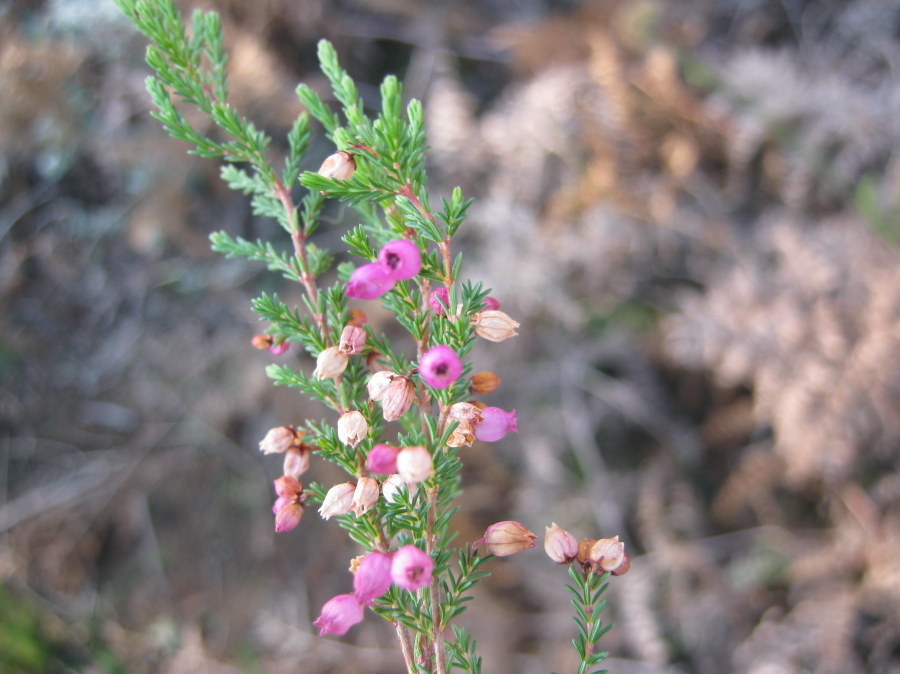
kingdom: Plantae
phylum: Tracheophyta
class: Magnoliopsida
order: Ericales
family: Ericaceae
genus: Erica
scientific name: Erica gracilis
